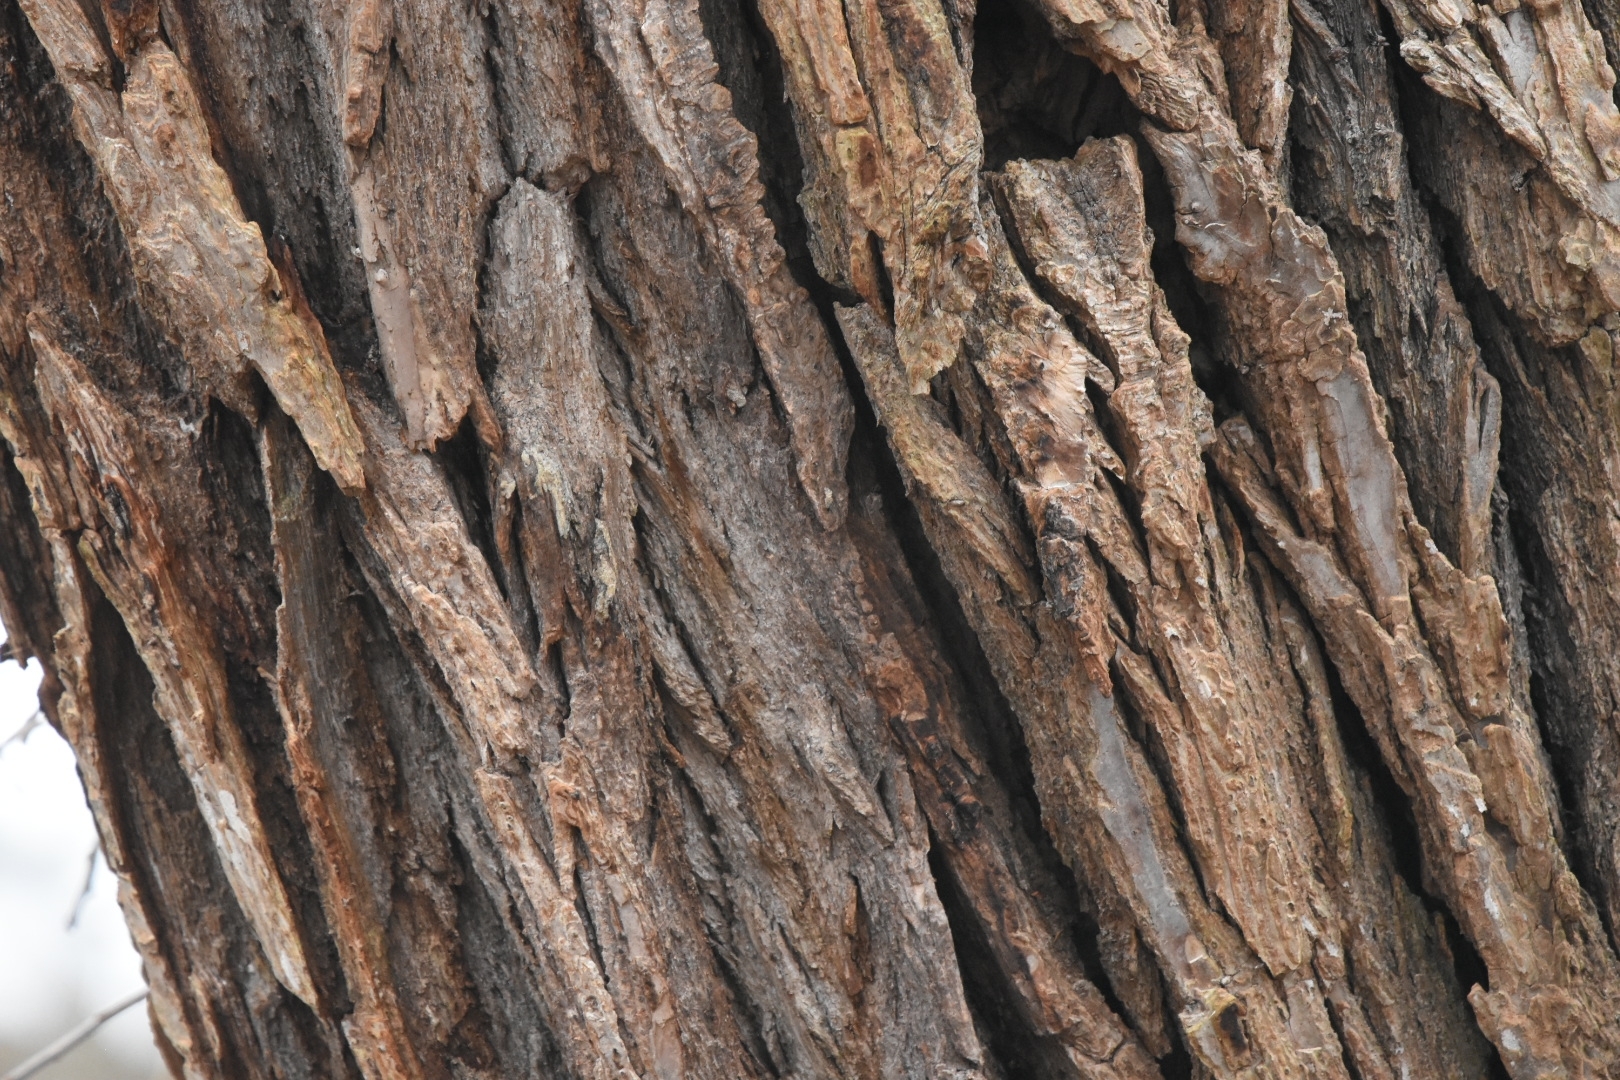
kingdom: Plantae
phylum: Tracheophyta
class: Magnoliopsida
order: Fabales
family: Fabaceae
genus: Robinia
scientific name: Robinia pseudoacacia
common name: Black locust
